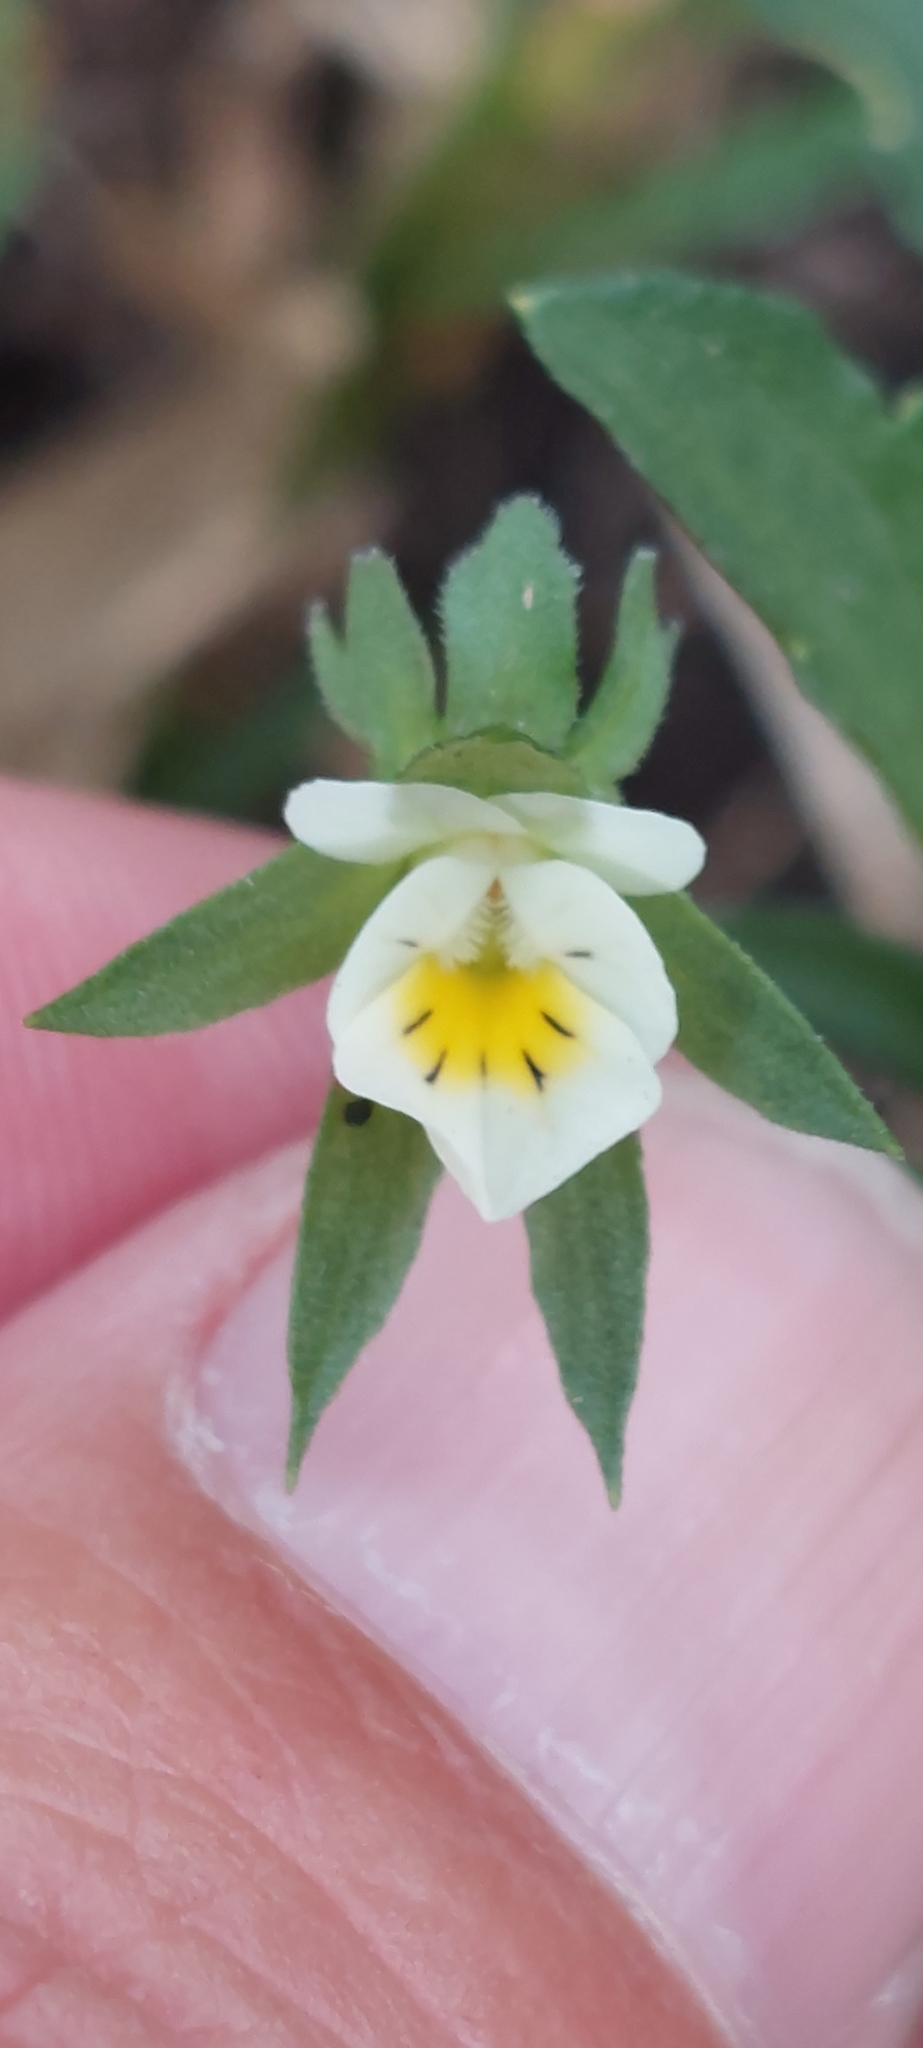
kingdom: Plantae
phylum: Tracheophyta
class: Magnoliopsida
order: Malpighiales
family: Violaceae
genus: Viola
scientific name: Viola arvensis
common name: Field pansy
